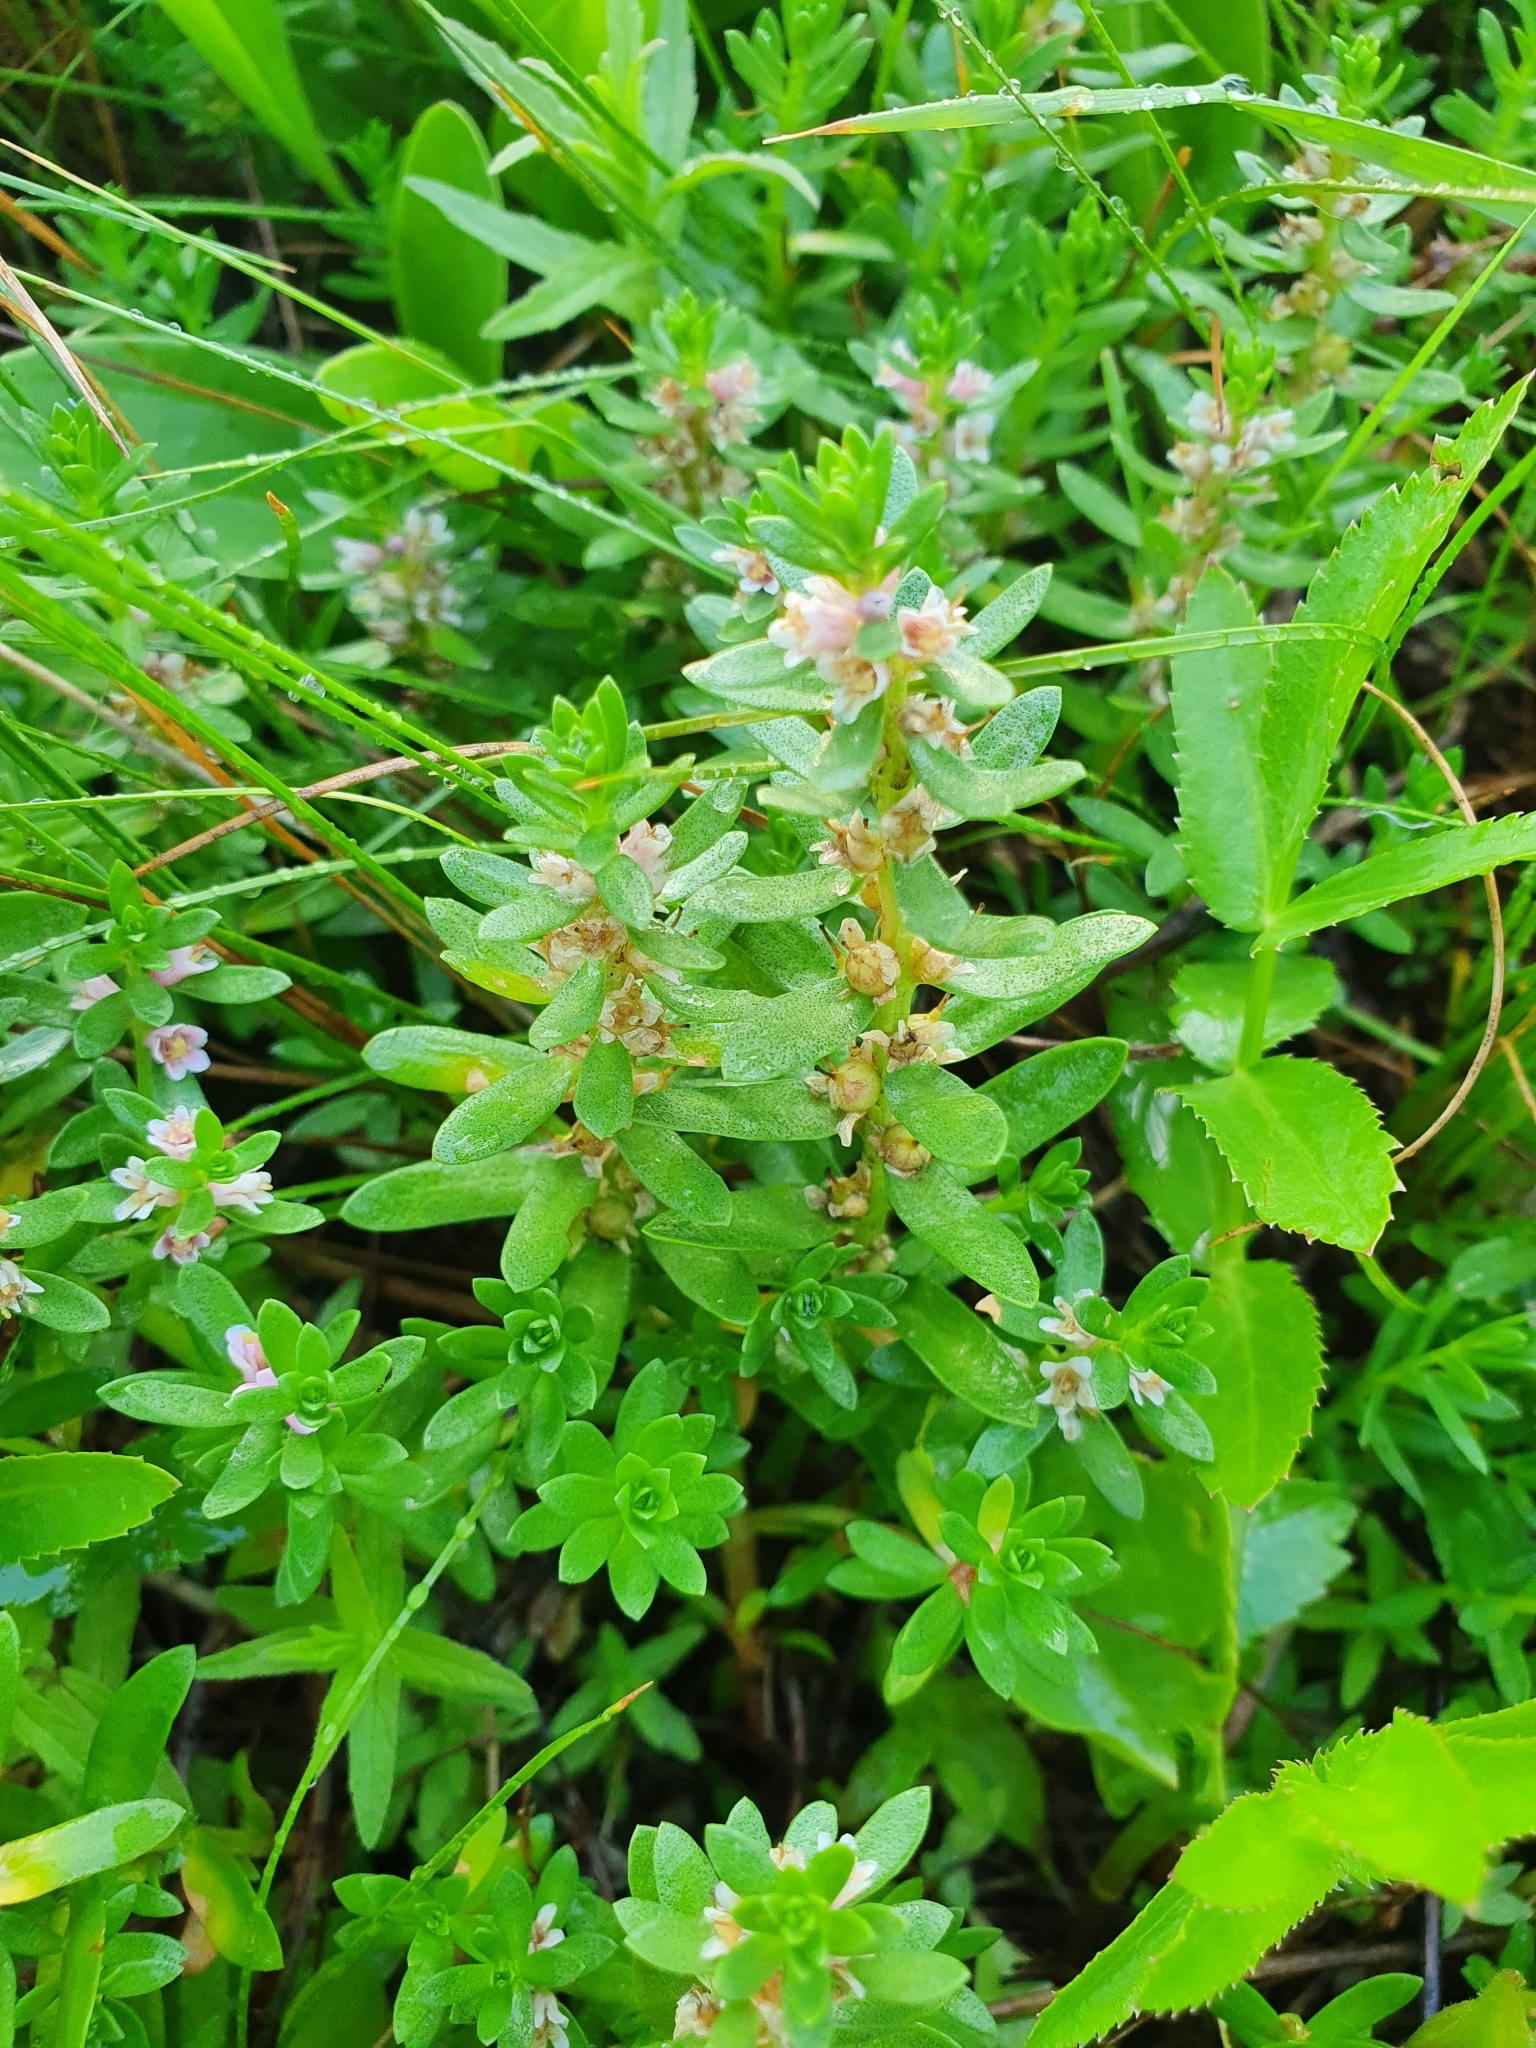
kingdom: Plantae
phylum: Tracheophyta
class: Magnoliopsida
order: Ericales
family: Primulaceae
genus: Lysimachia
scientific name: Lysimachia maritima
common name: Sea milkwort
